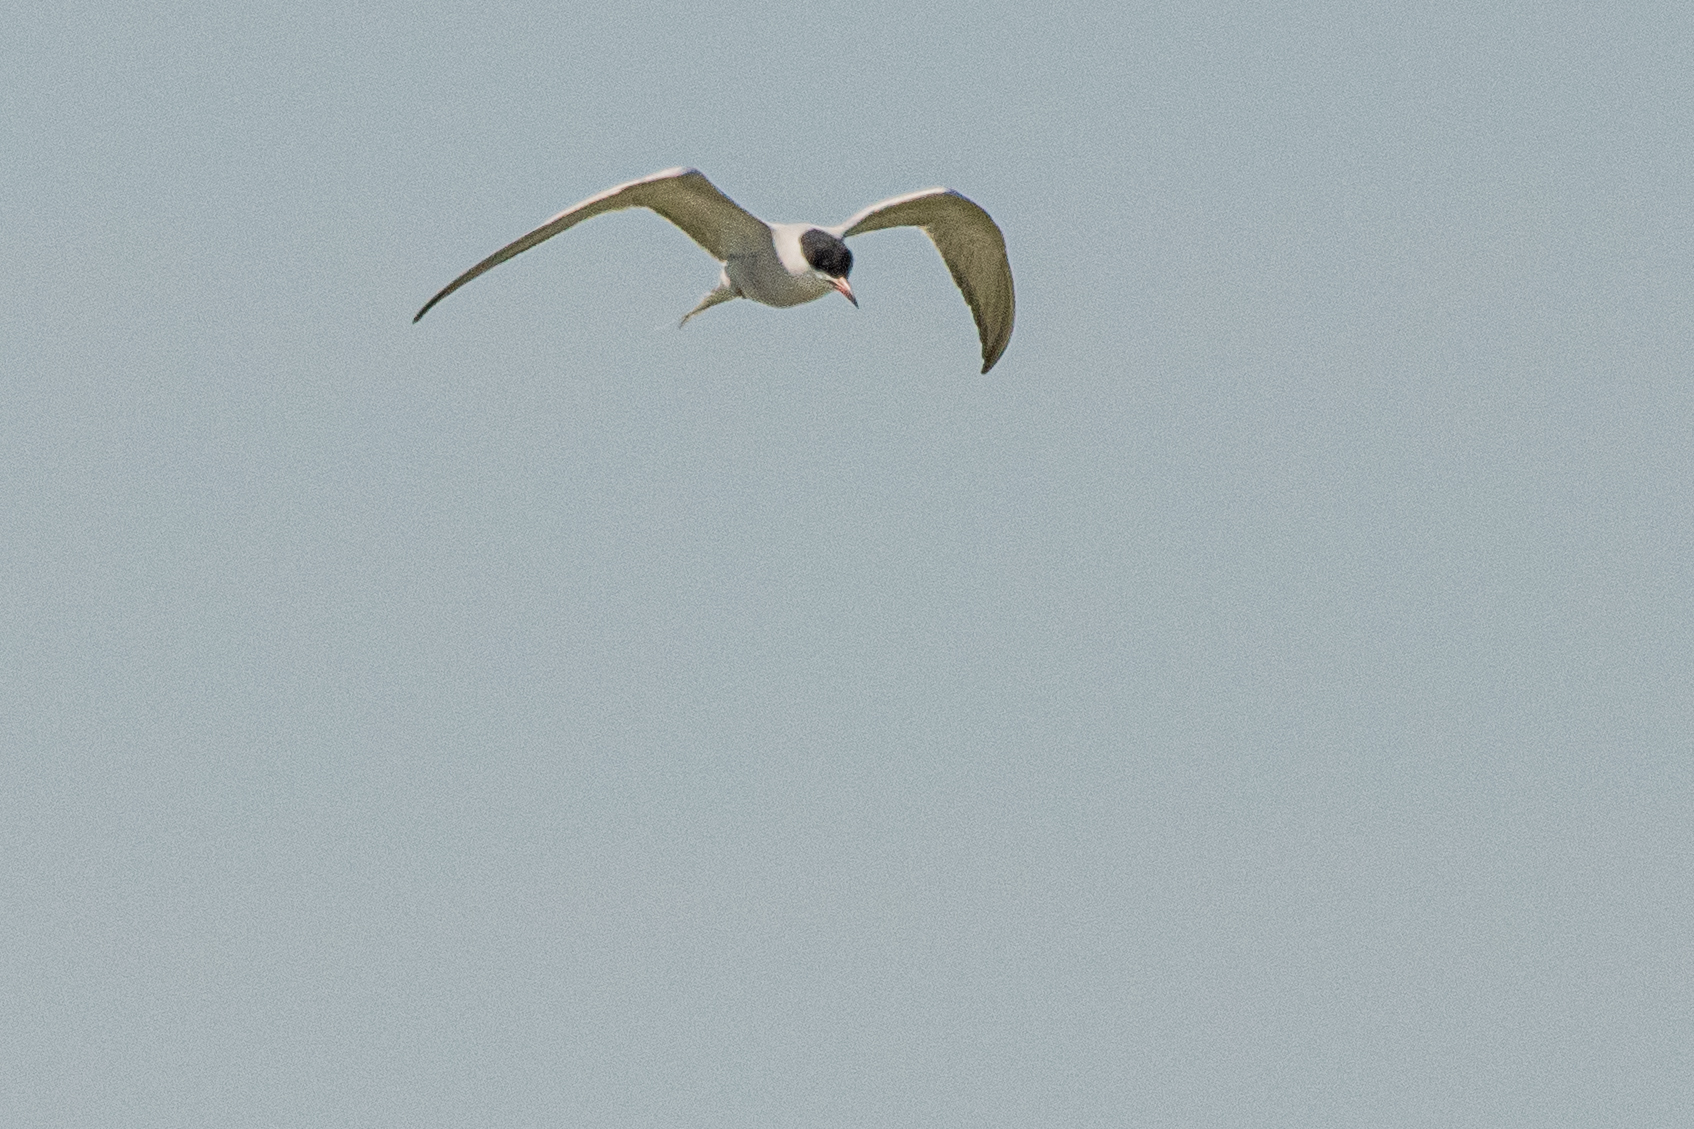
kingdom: Animalia
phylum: Chordata
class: Aves
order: Charadriiformes
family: Laridae
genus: Sterna
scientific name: Sterna hirundo
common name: Common tern
